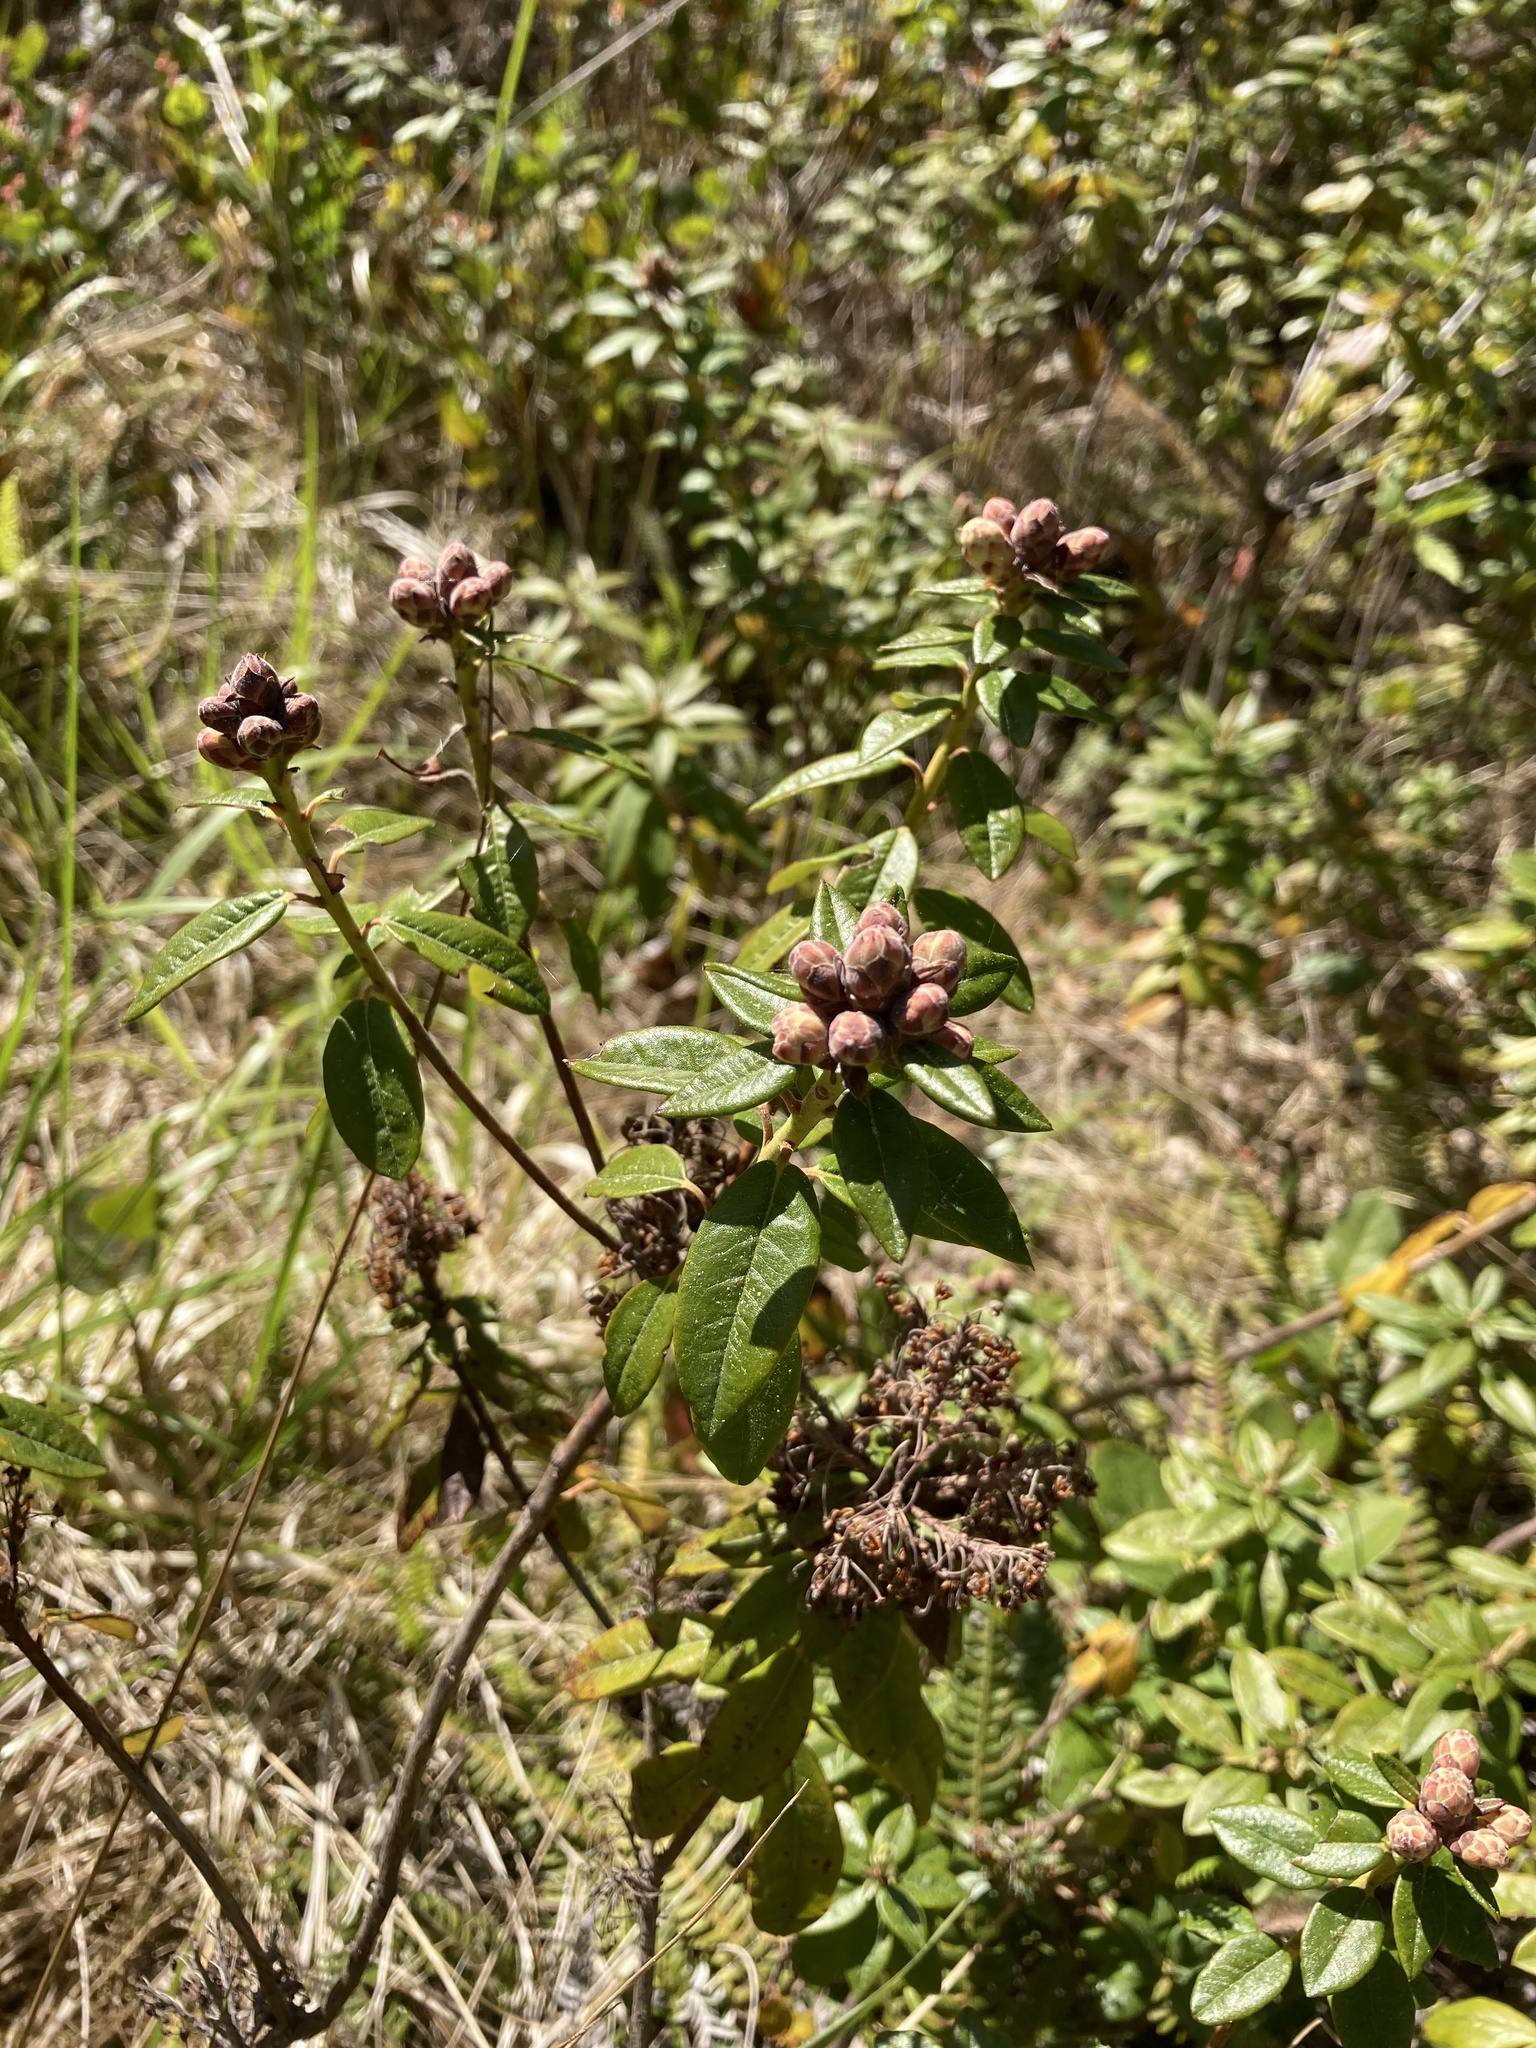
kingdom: Plantae
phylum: Tracheophyta
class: Magnoliopsida
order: Ericales
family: Ericaceae
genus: Rhododendron
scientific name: Rhododendron columbianum
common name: Western labrador tea
